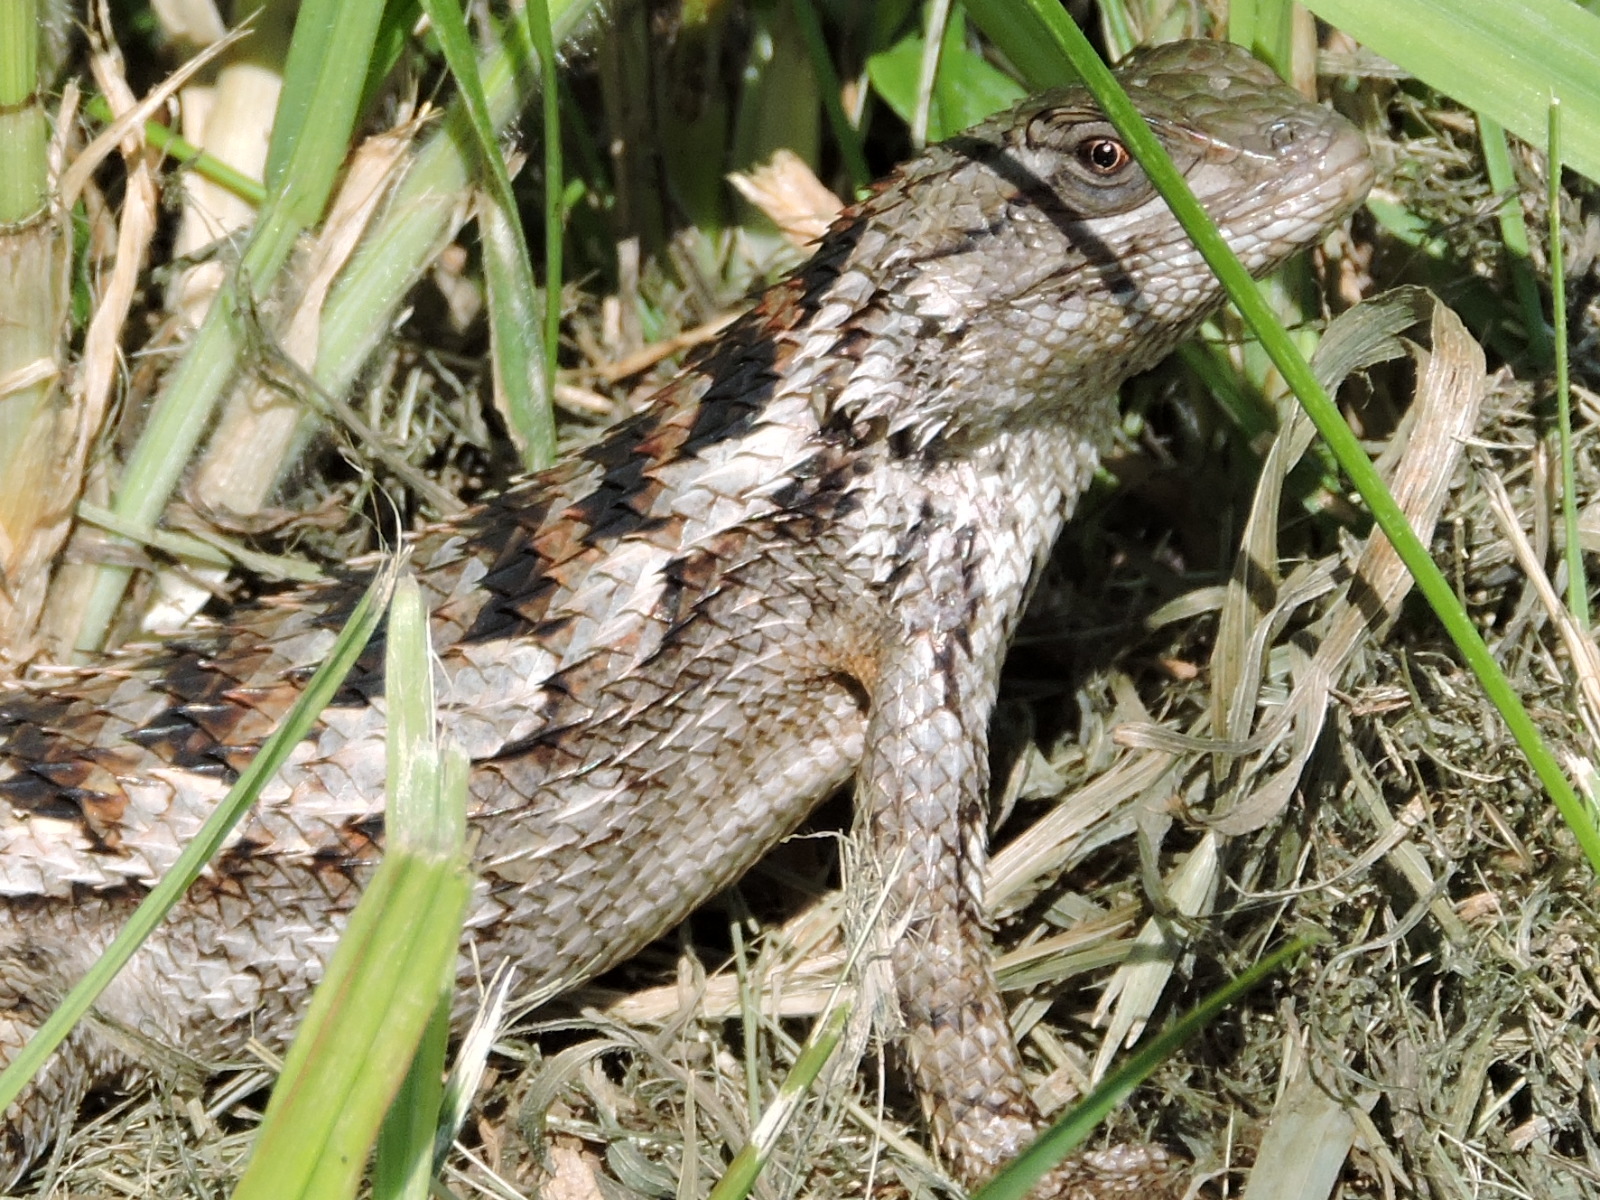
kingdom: Animalia
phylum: Chordata
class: Squamata
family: Phrynosomatidae
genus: Sceloporus
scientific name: Sceloporus olivaceus
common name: Texas spiny lizard
